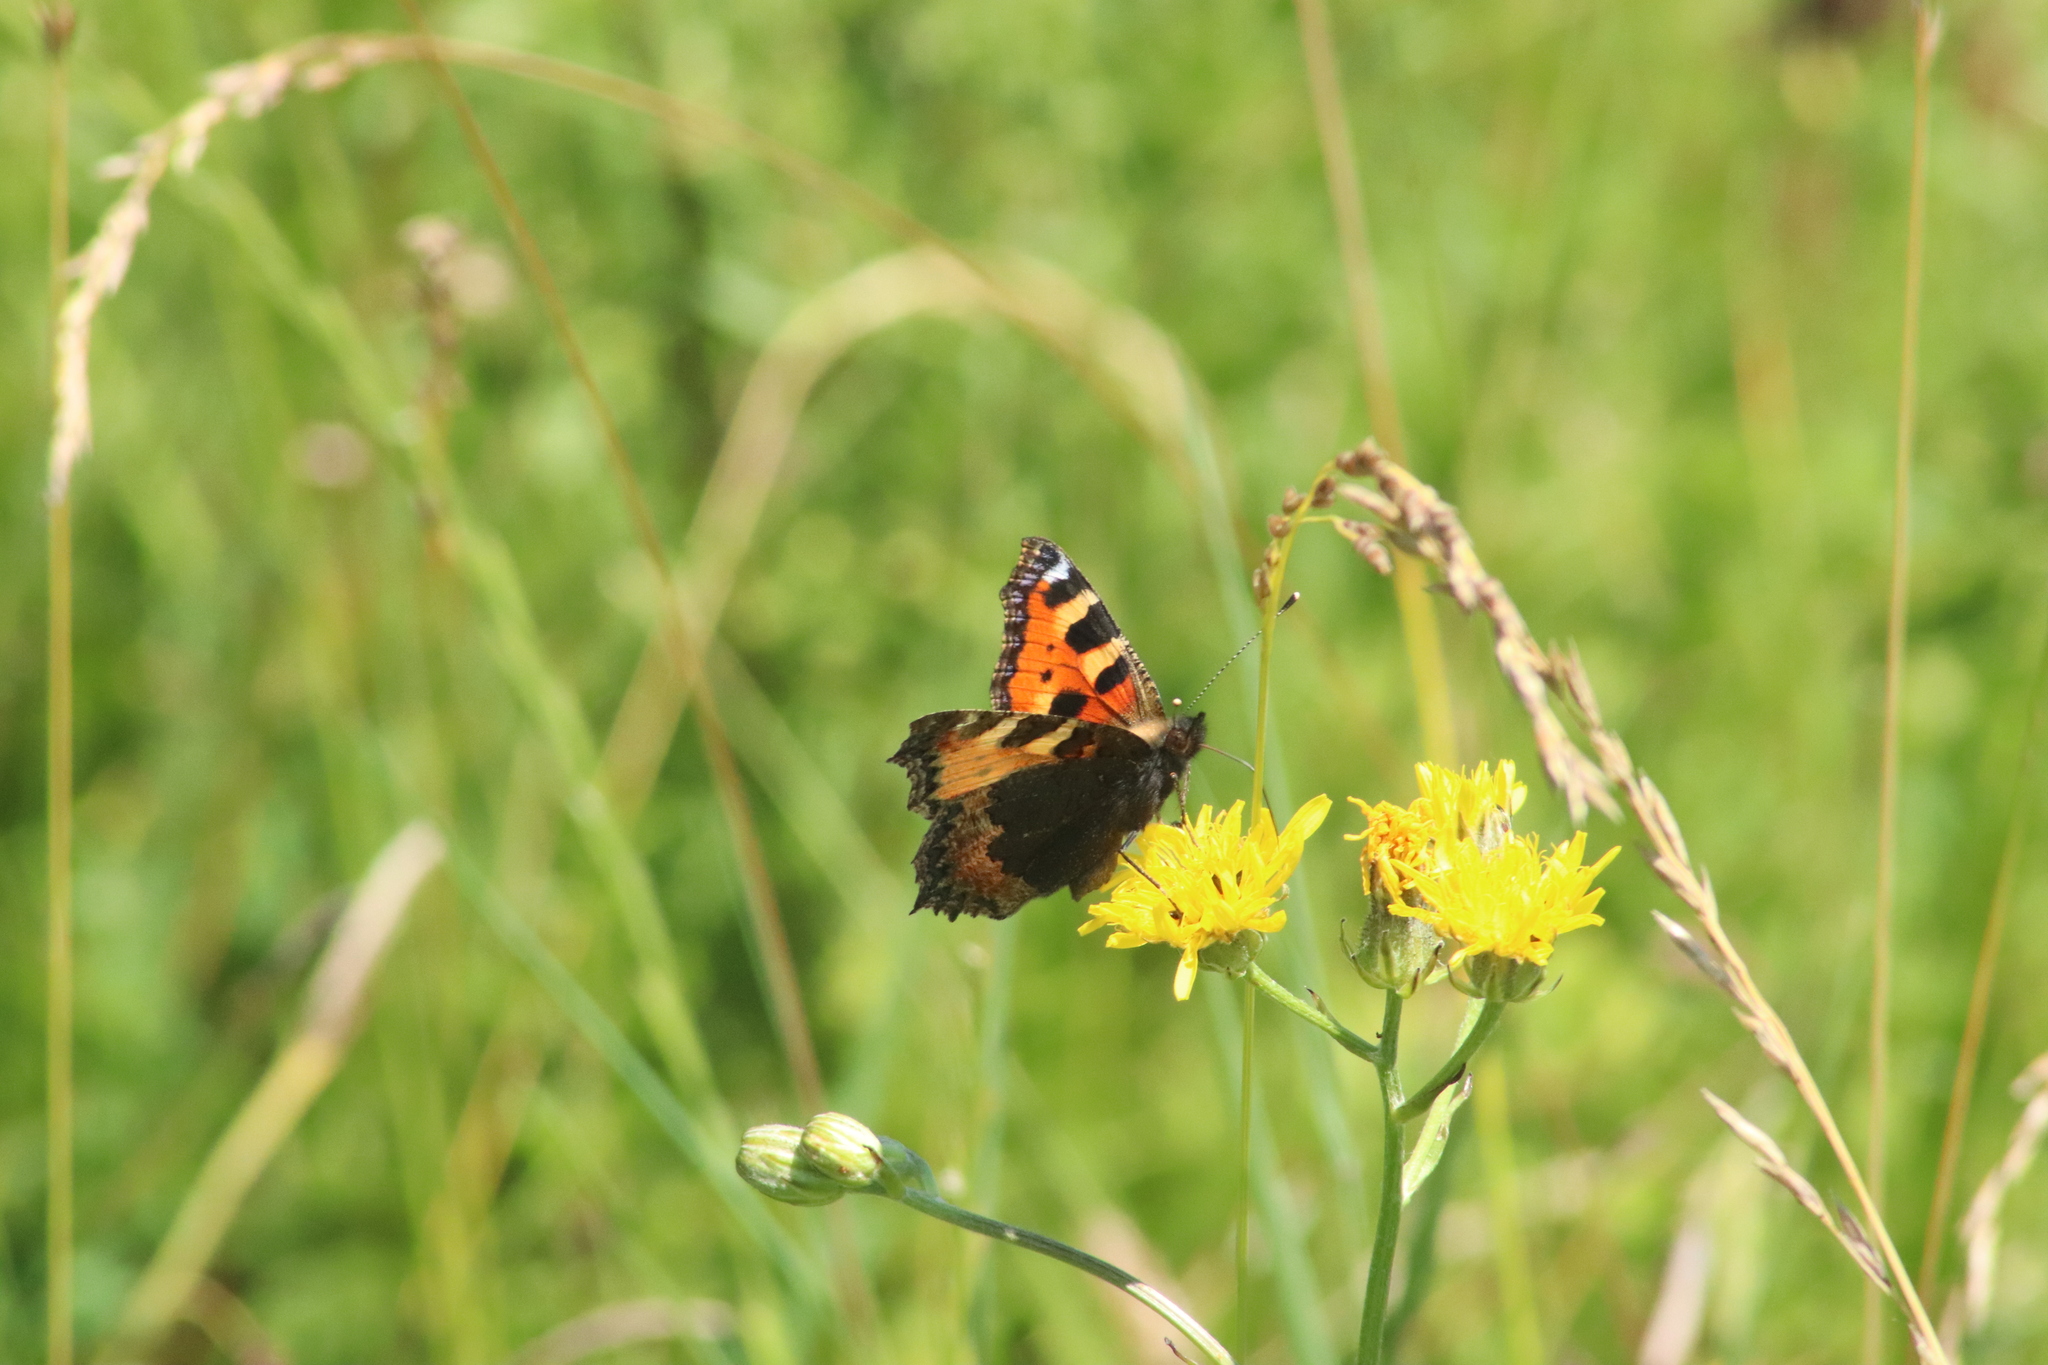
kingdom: Animalia
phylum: Arthropoda
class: Insecta
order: Lepidoptera
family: Nymphalidae
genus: Aglais
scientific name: Aglais urticae
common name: Small tortoiseshell
